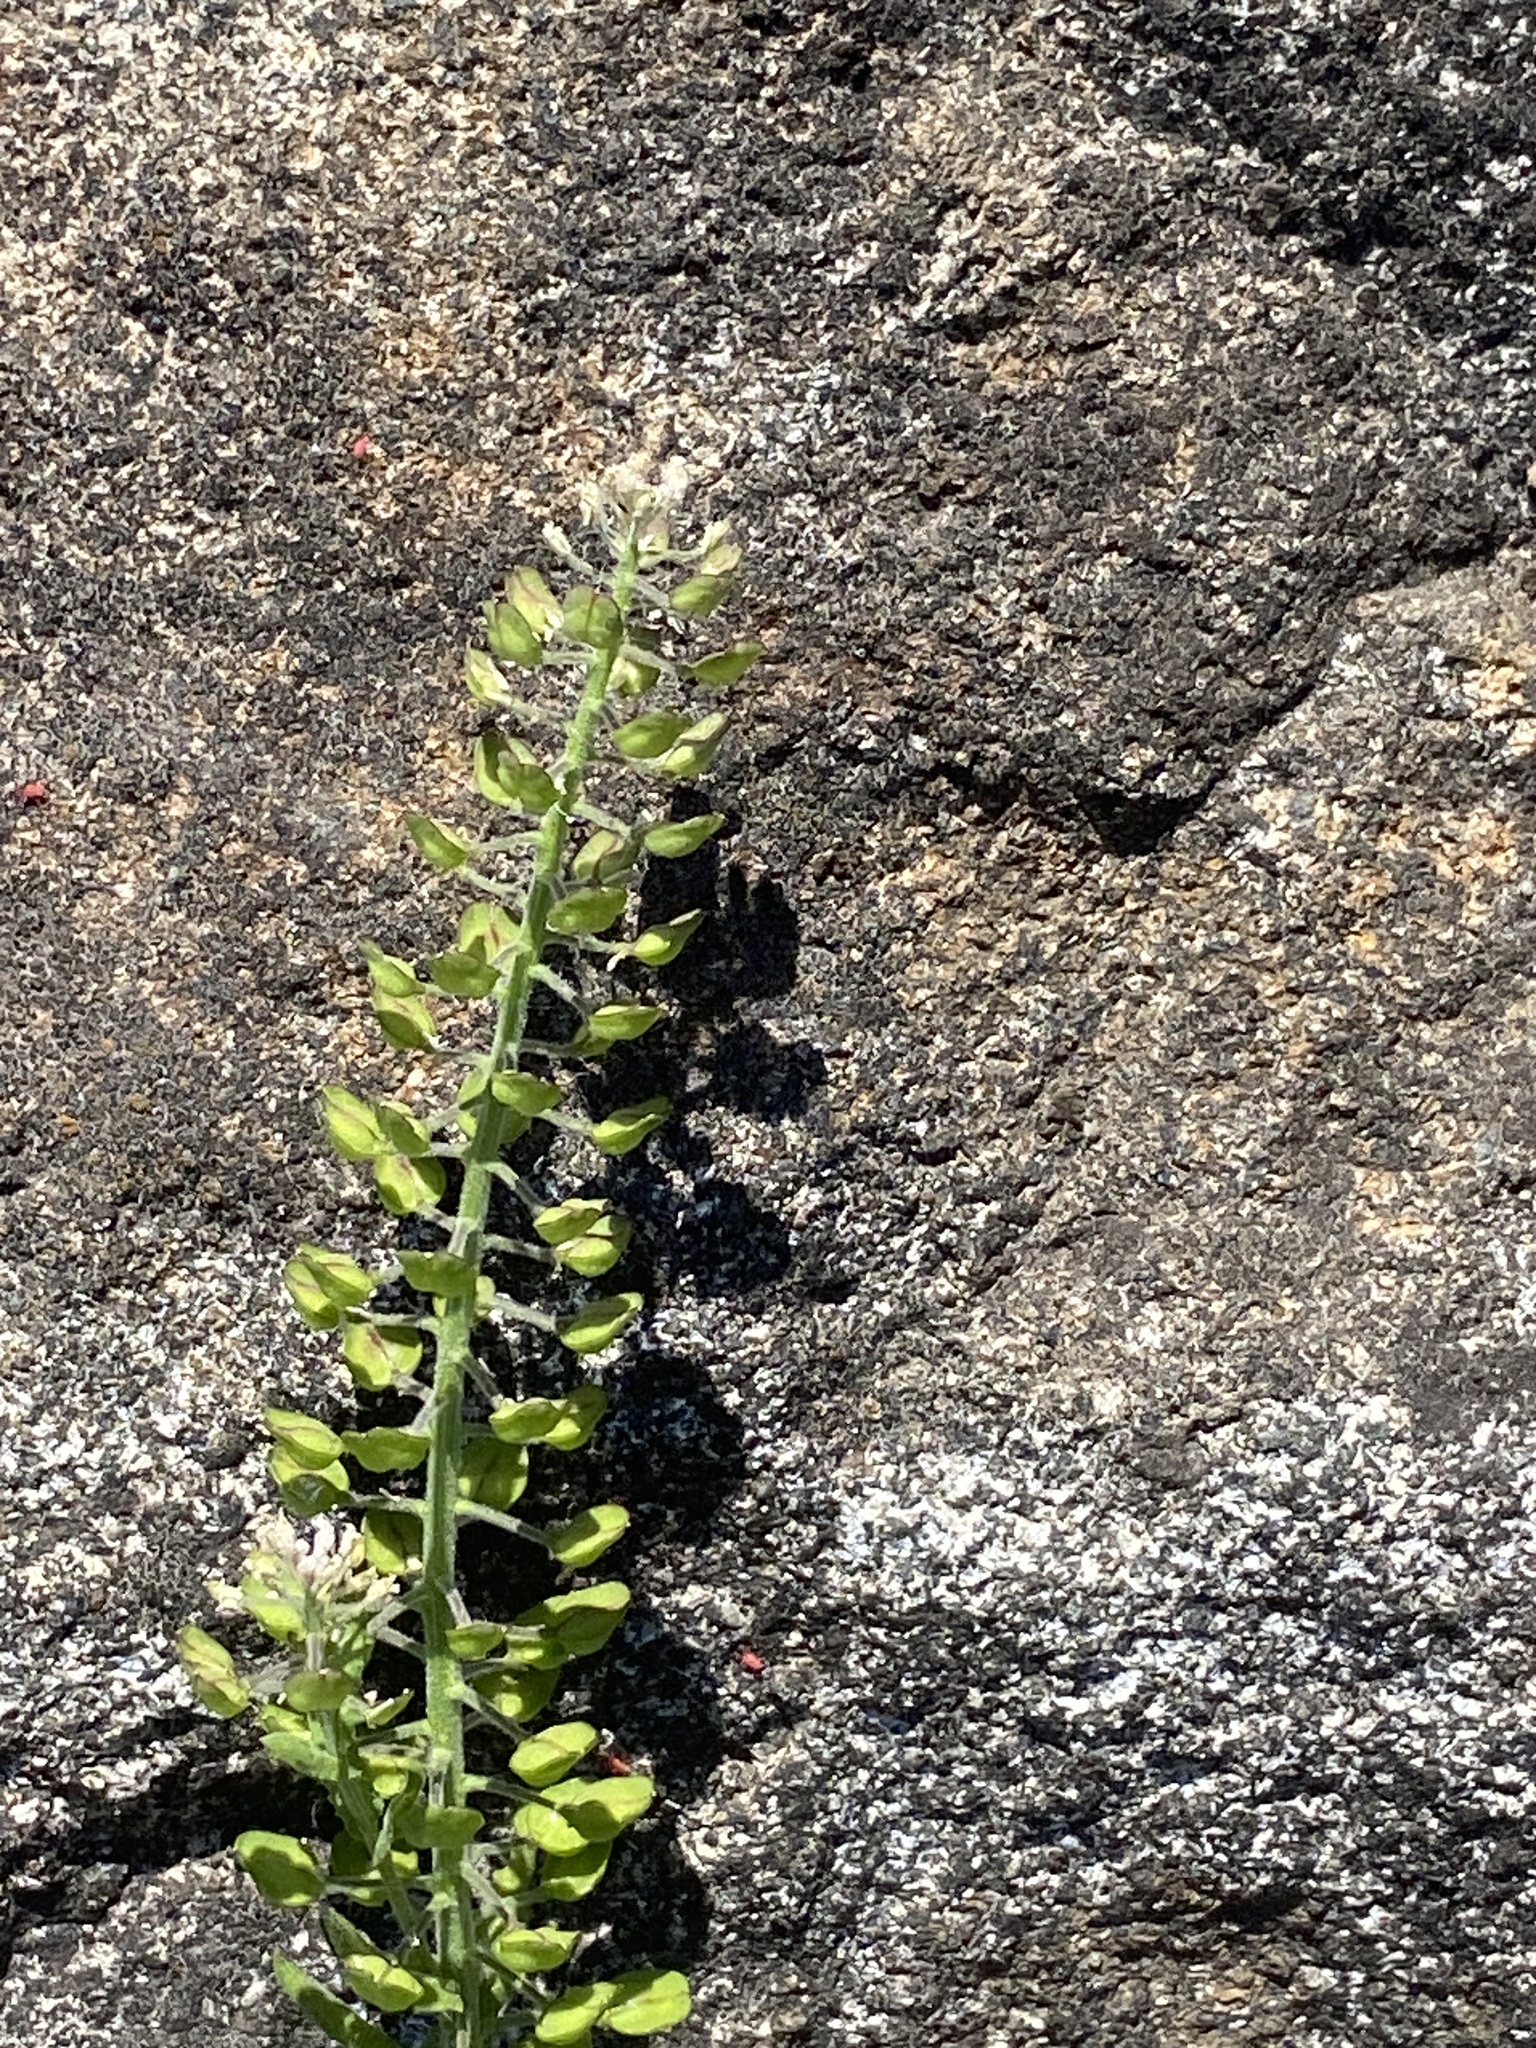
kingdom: Plantae
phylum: Tracheophyta
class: Magnoliopsida
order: Brassicales
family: Brassicaceae
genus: Lepidium
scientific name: Lepidium campestre
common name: Field pepperwort
